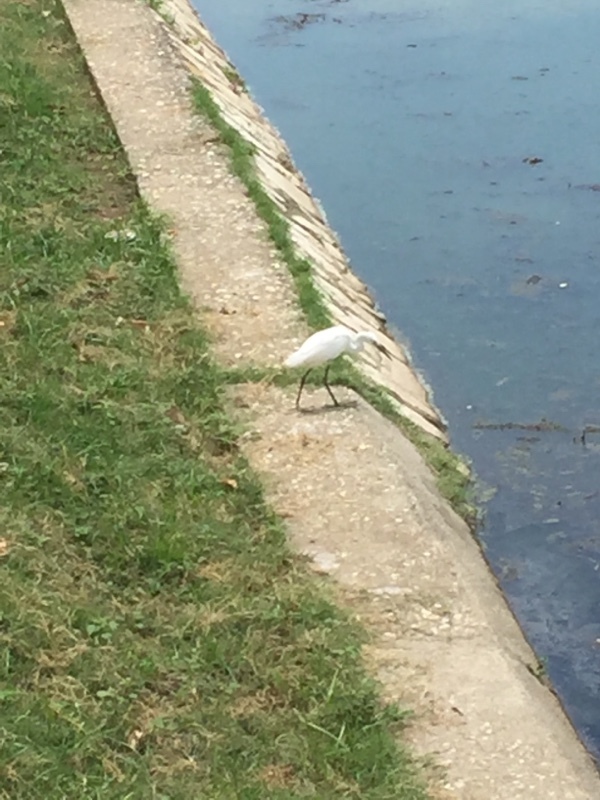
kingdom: Animalia
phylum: Chordata
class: Aves
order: Pelecaniformes
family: Ardeidae
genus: Egretta
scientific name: Egretta thula
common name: Snowy egret
